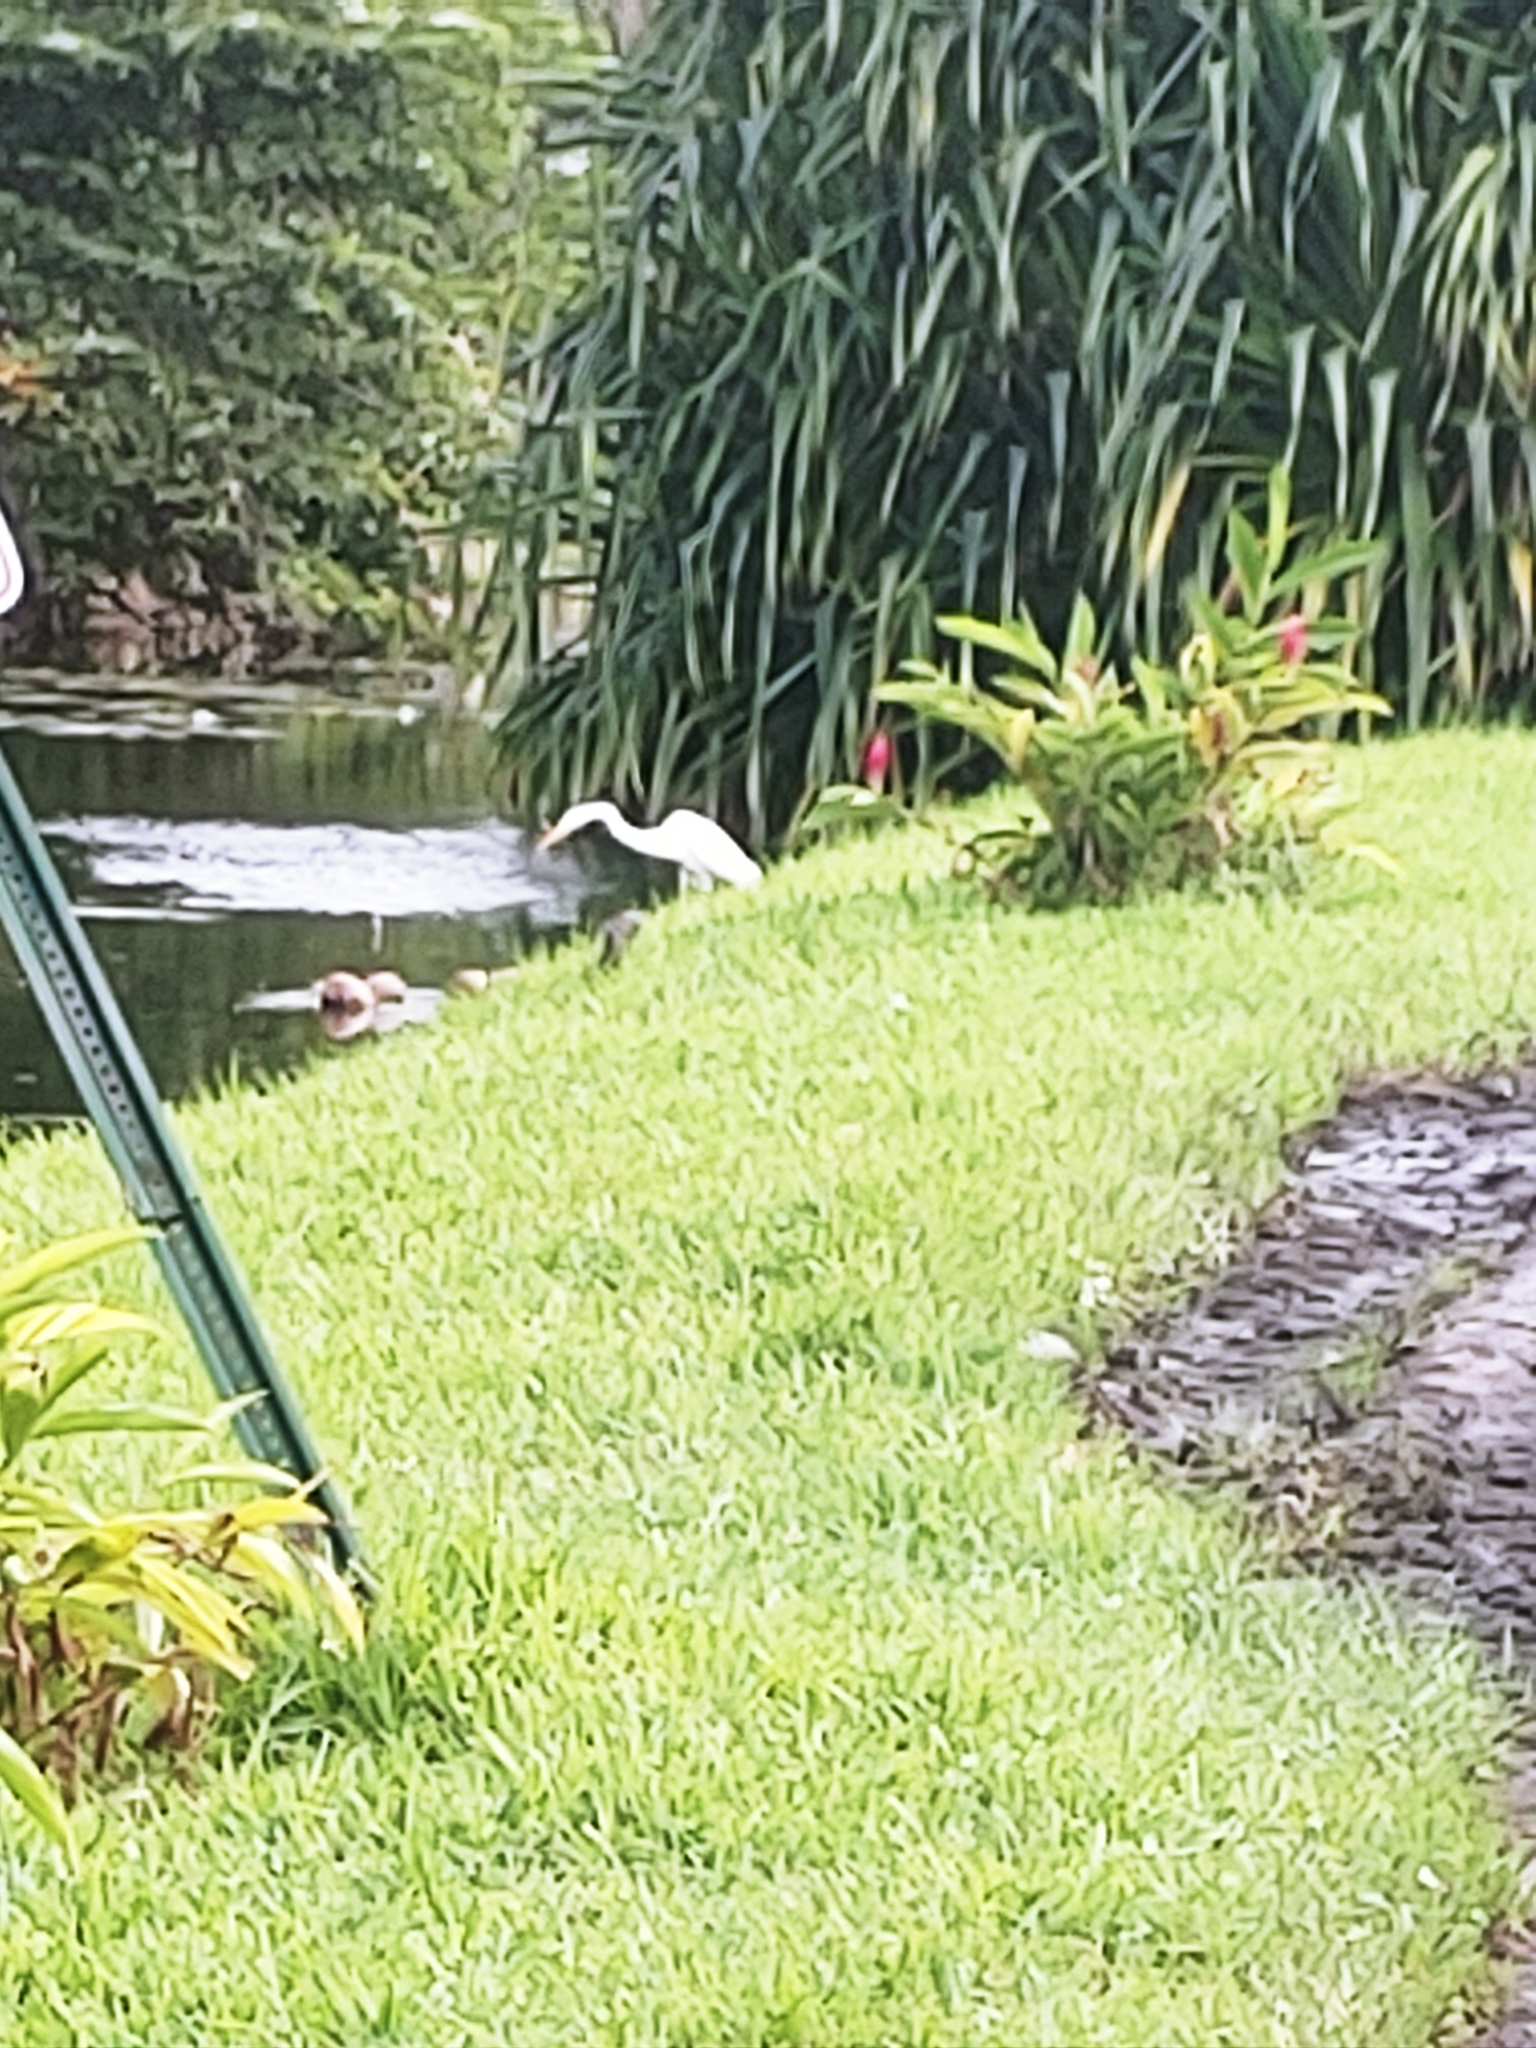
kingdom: Animalia
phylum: Chordata
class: Aves
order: Pelecaniformes
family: Ardeidae
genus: Ardea
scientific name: Ardea alba
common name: Great egret
